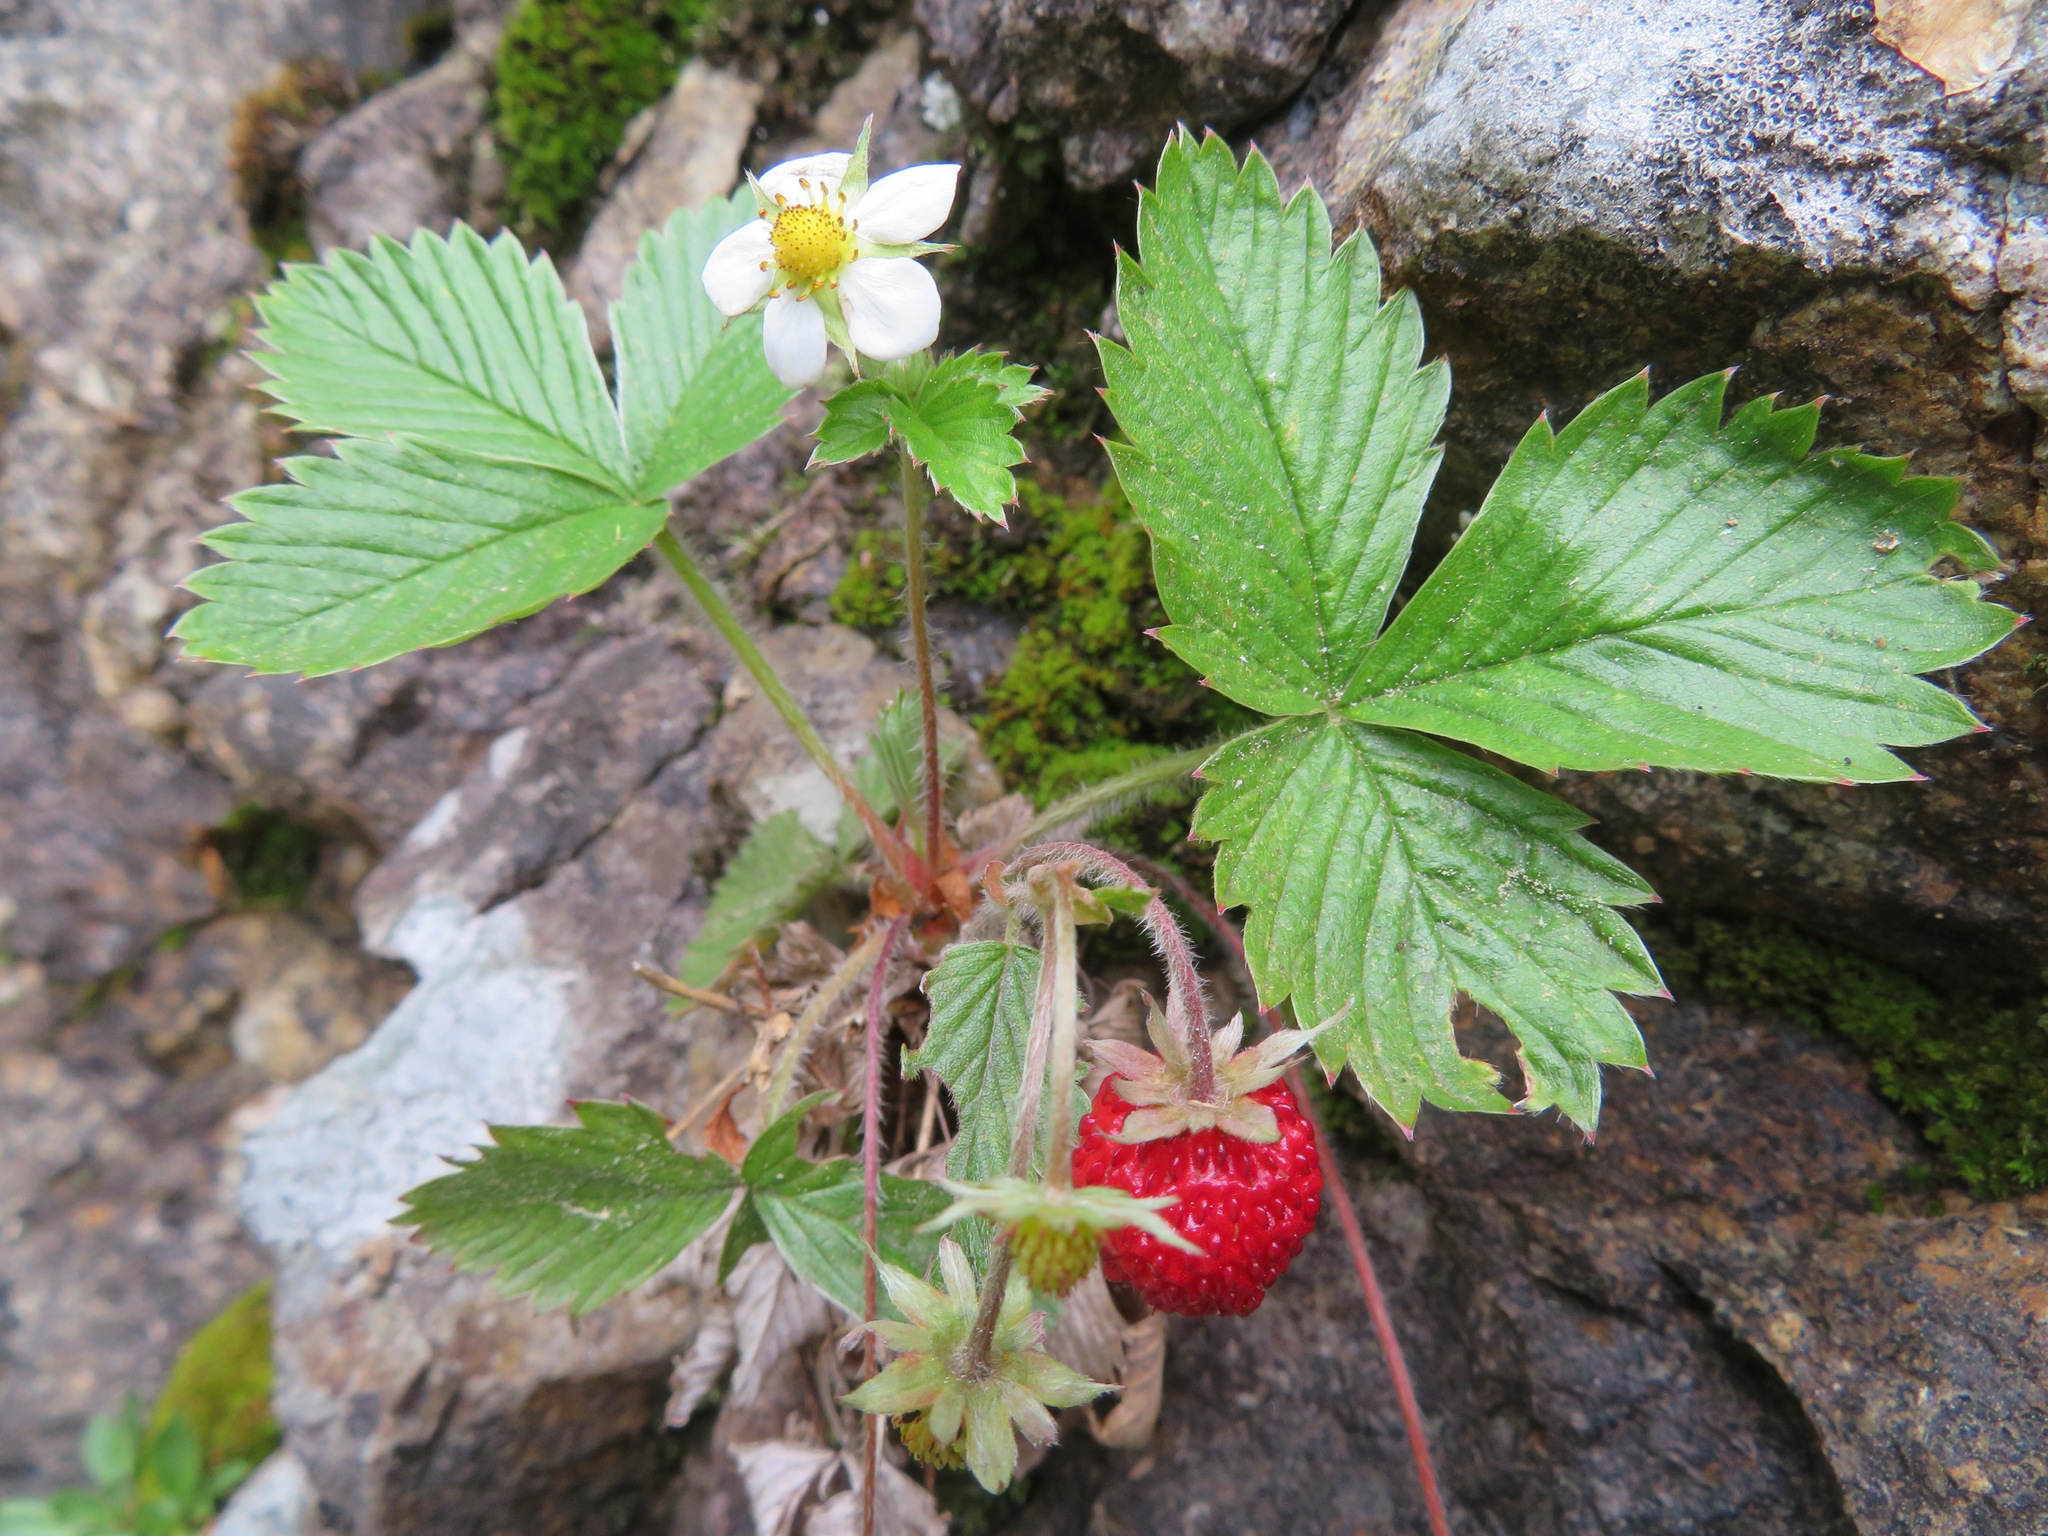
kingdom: Plantae
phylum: Tracheophyta
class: Magnoliopsida
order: Rosales
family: Rosaceae
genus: Fragaria
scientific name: Fragaria vesca
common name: Wild strawberry
